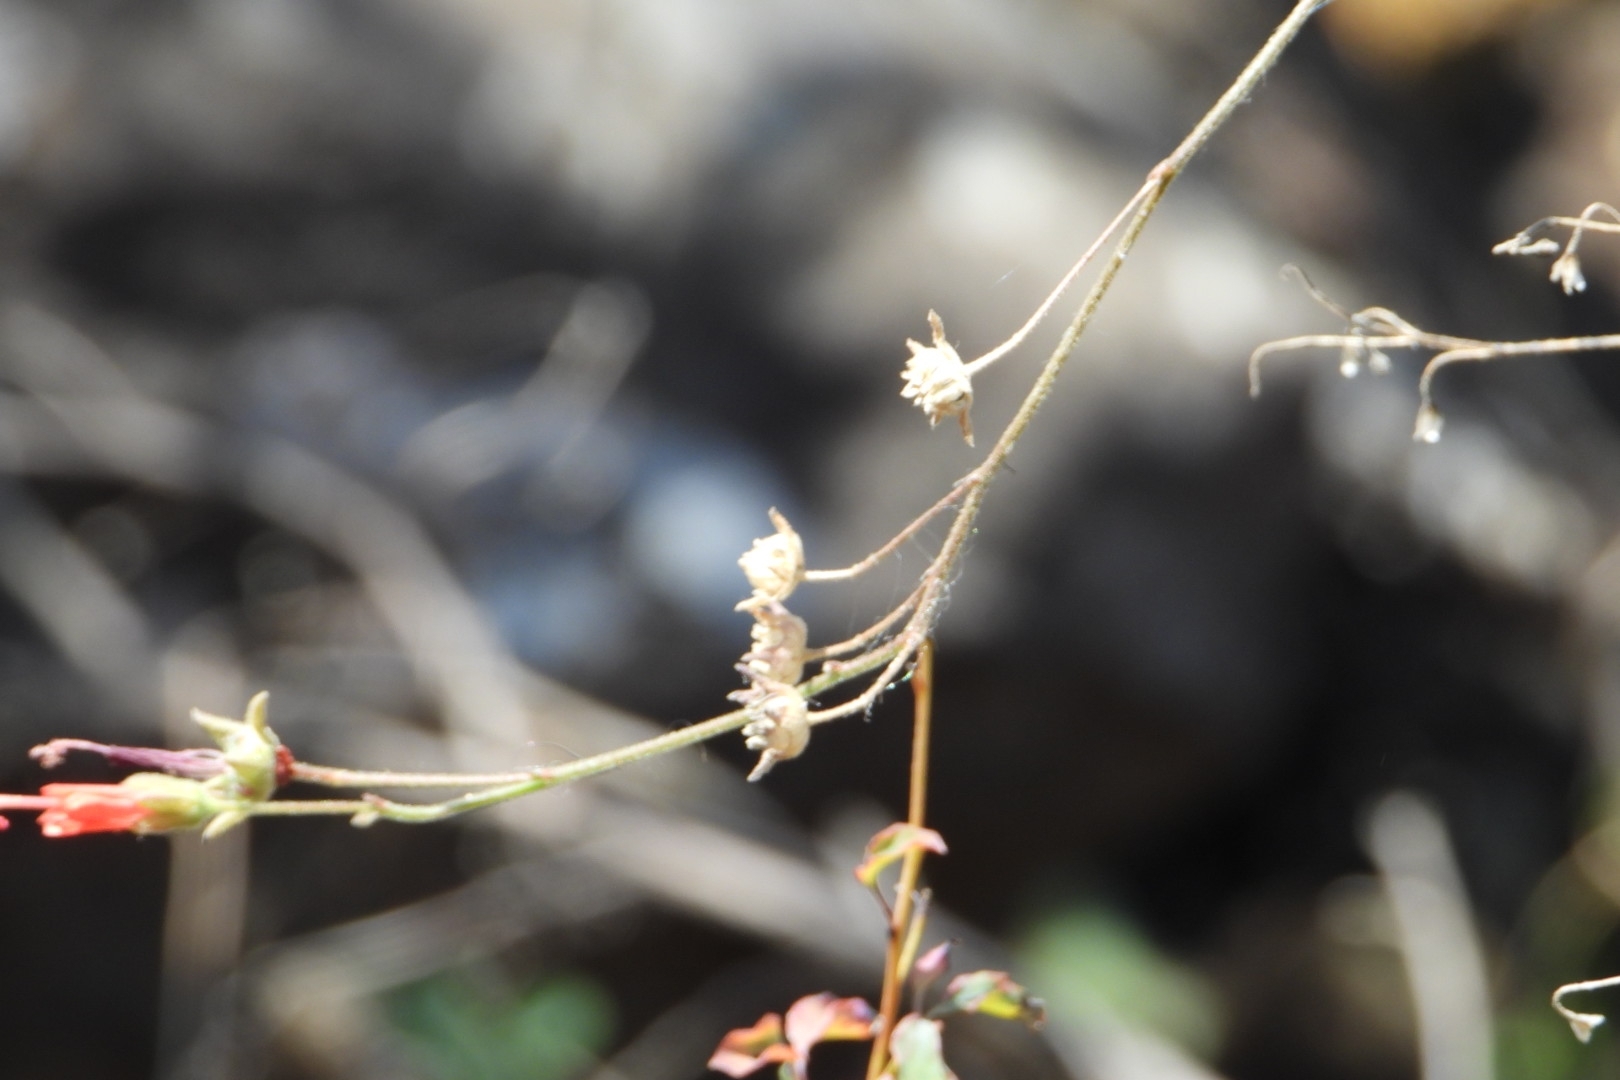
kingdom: Plantae
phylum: Tracheophyta
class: Magnoliopsida
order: Malvales
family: Malvaceae
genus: Periptera
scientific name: Periptera punicea
